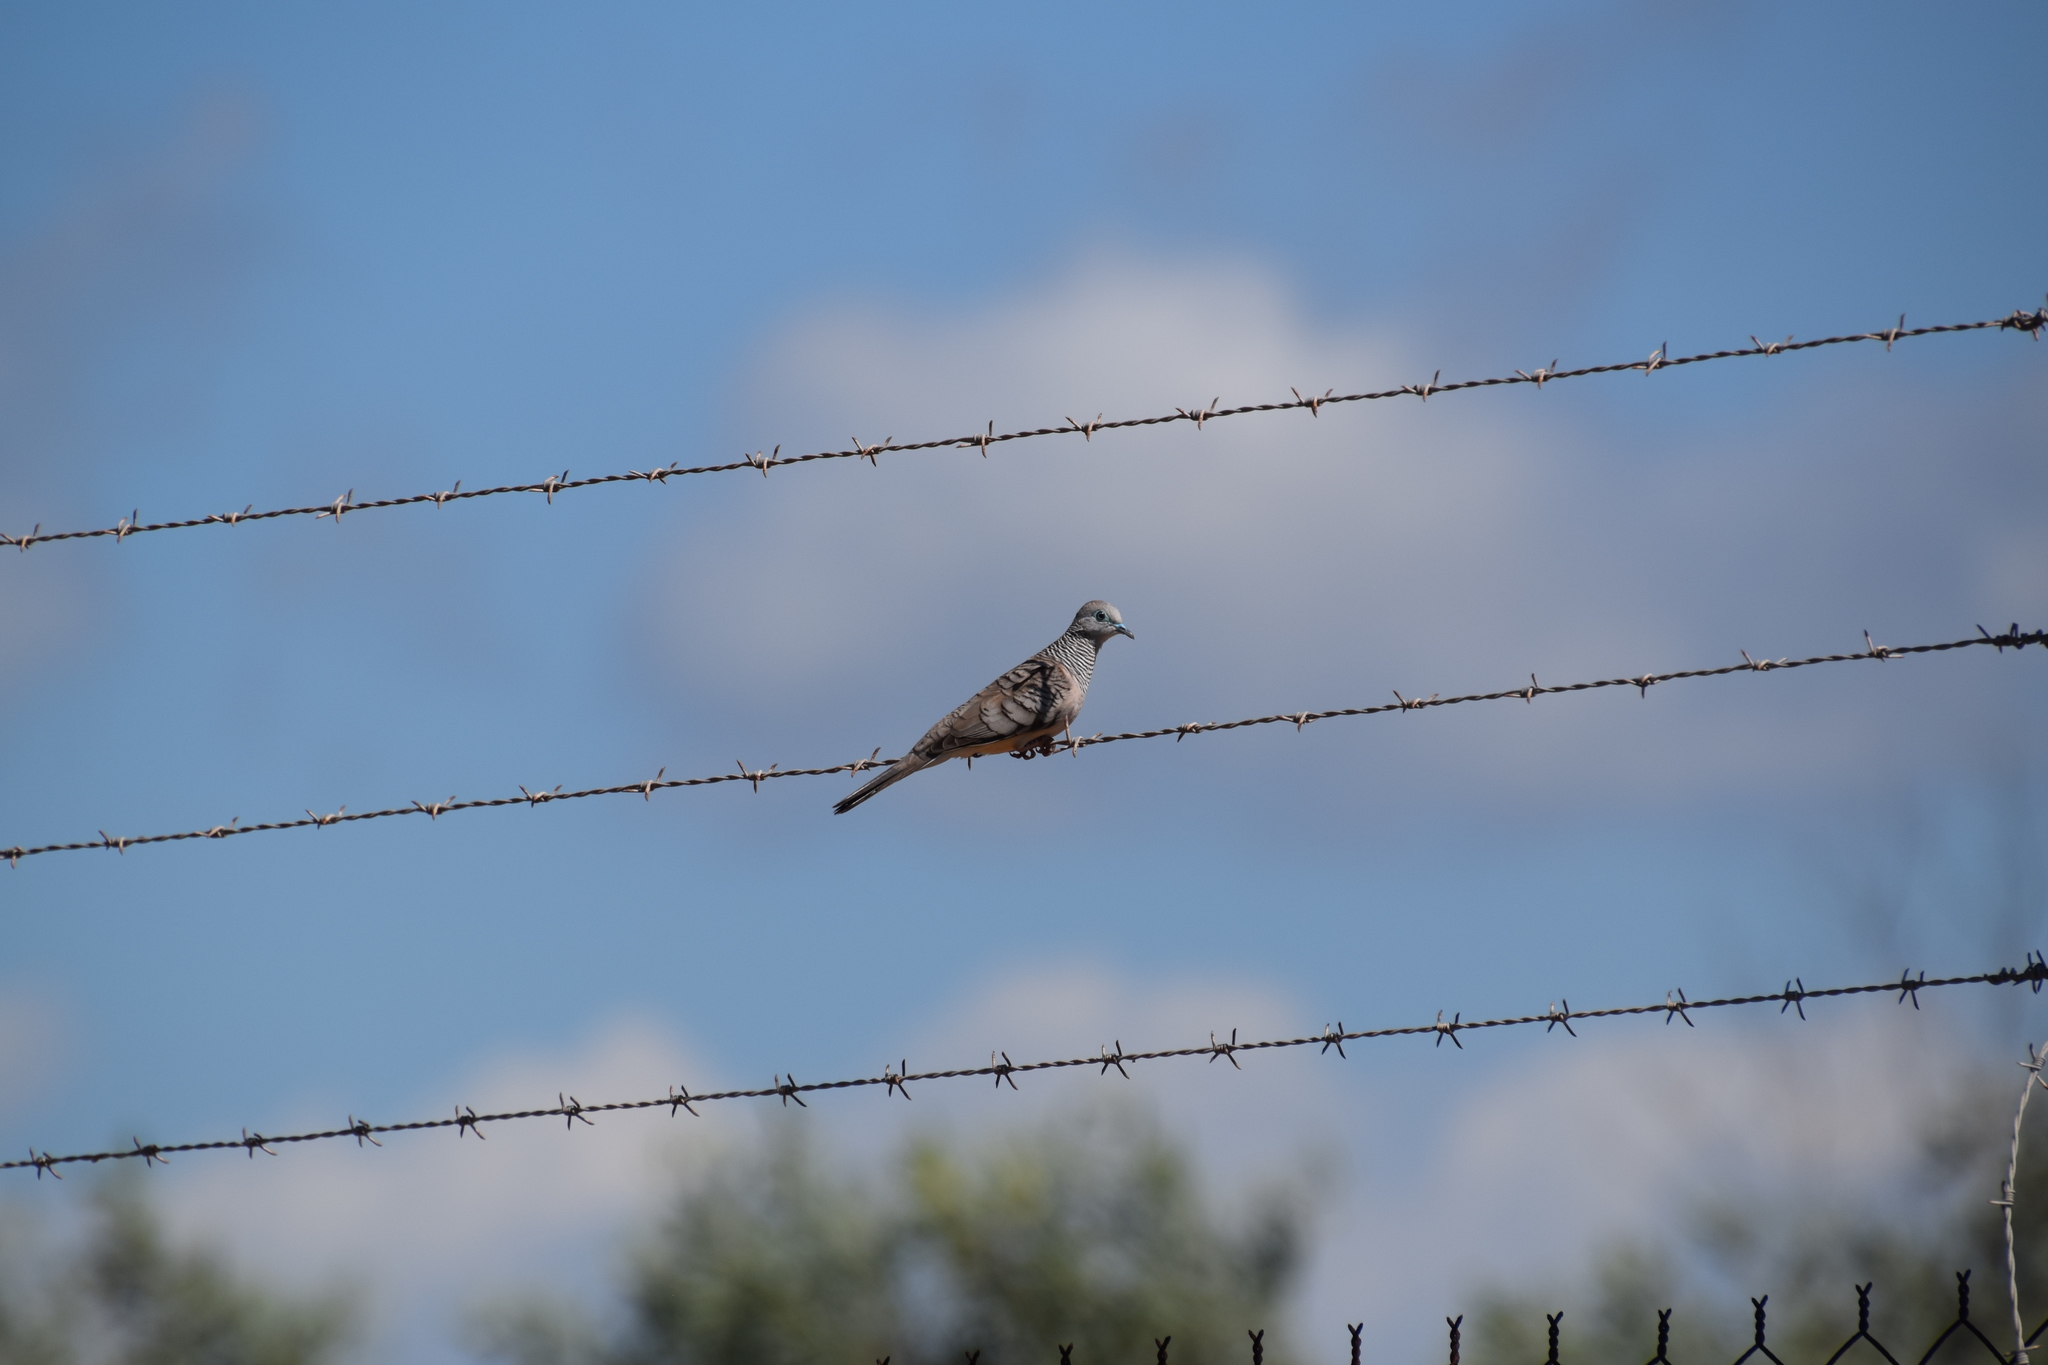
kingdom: Animalia
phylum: Chordata
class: Aves
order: Columbiformes
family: Columbidae
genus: Geopelia
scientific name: Geopelia placida
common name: Peaceful dove
